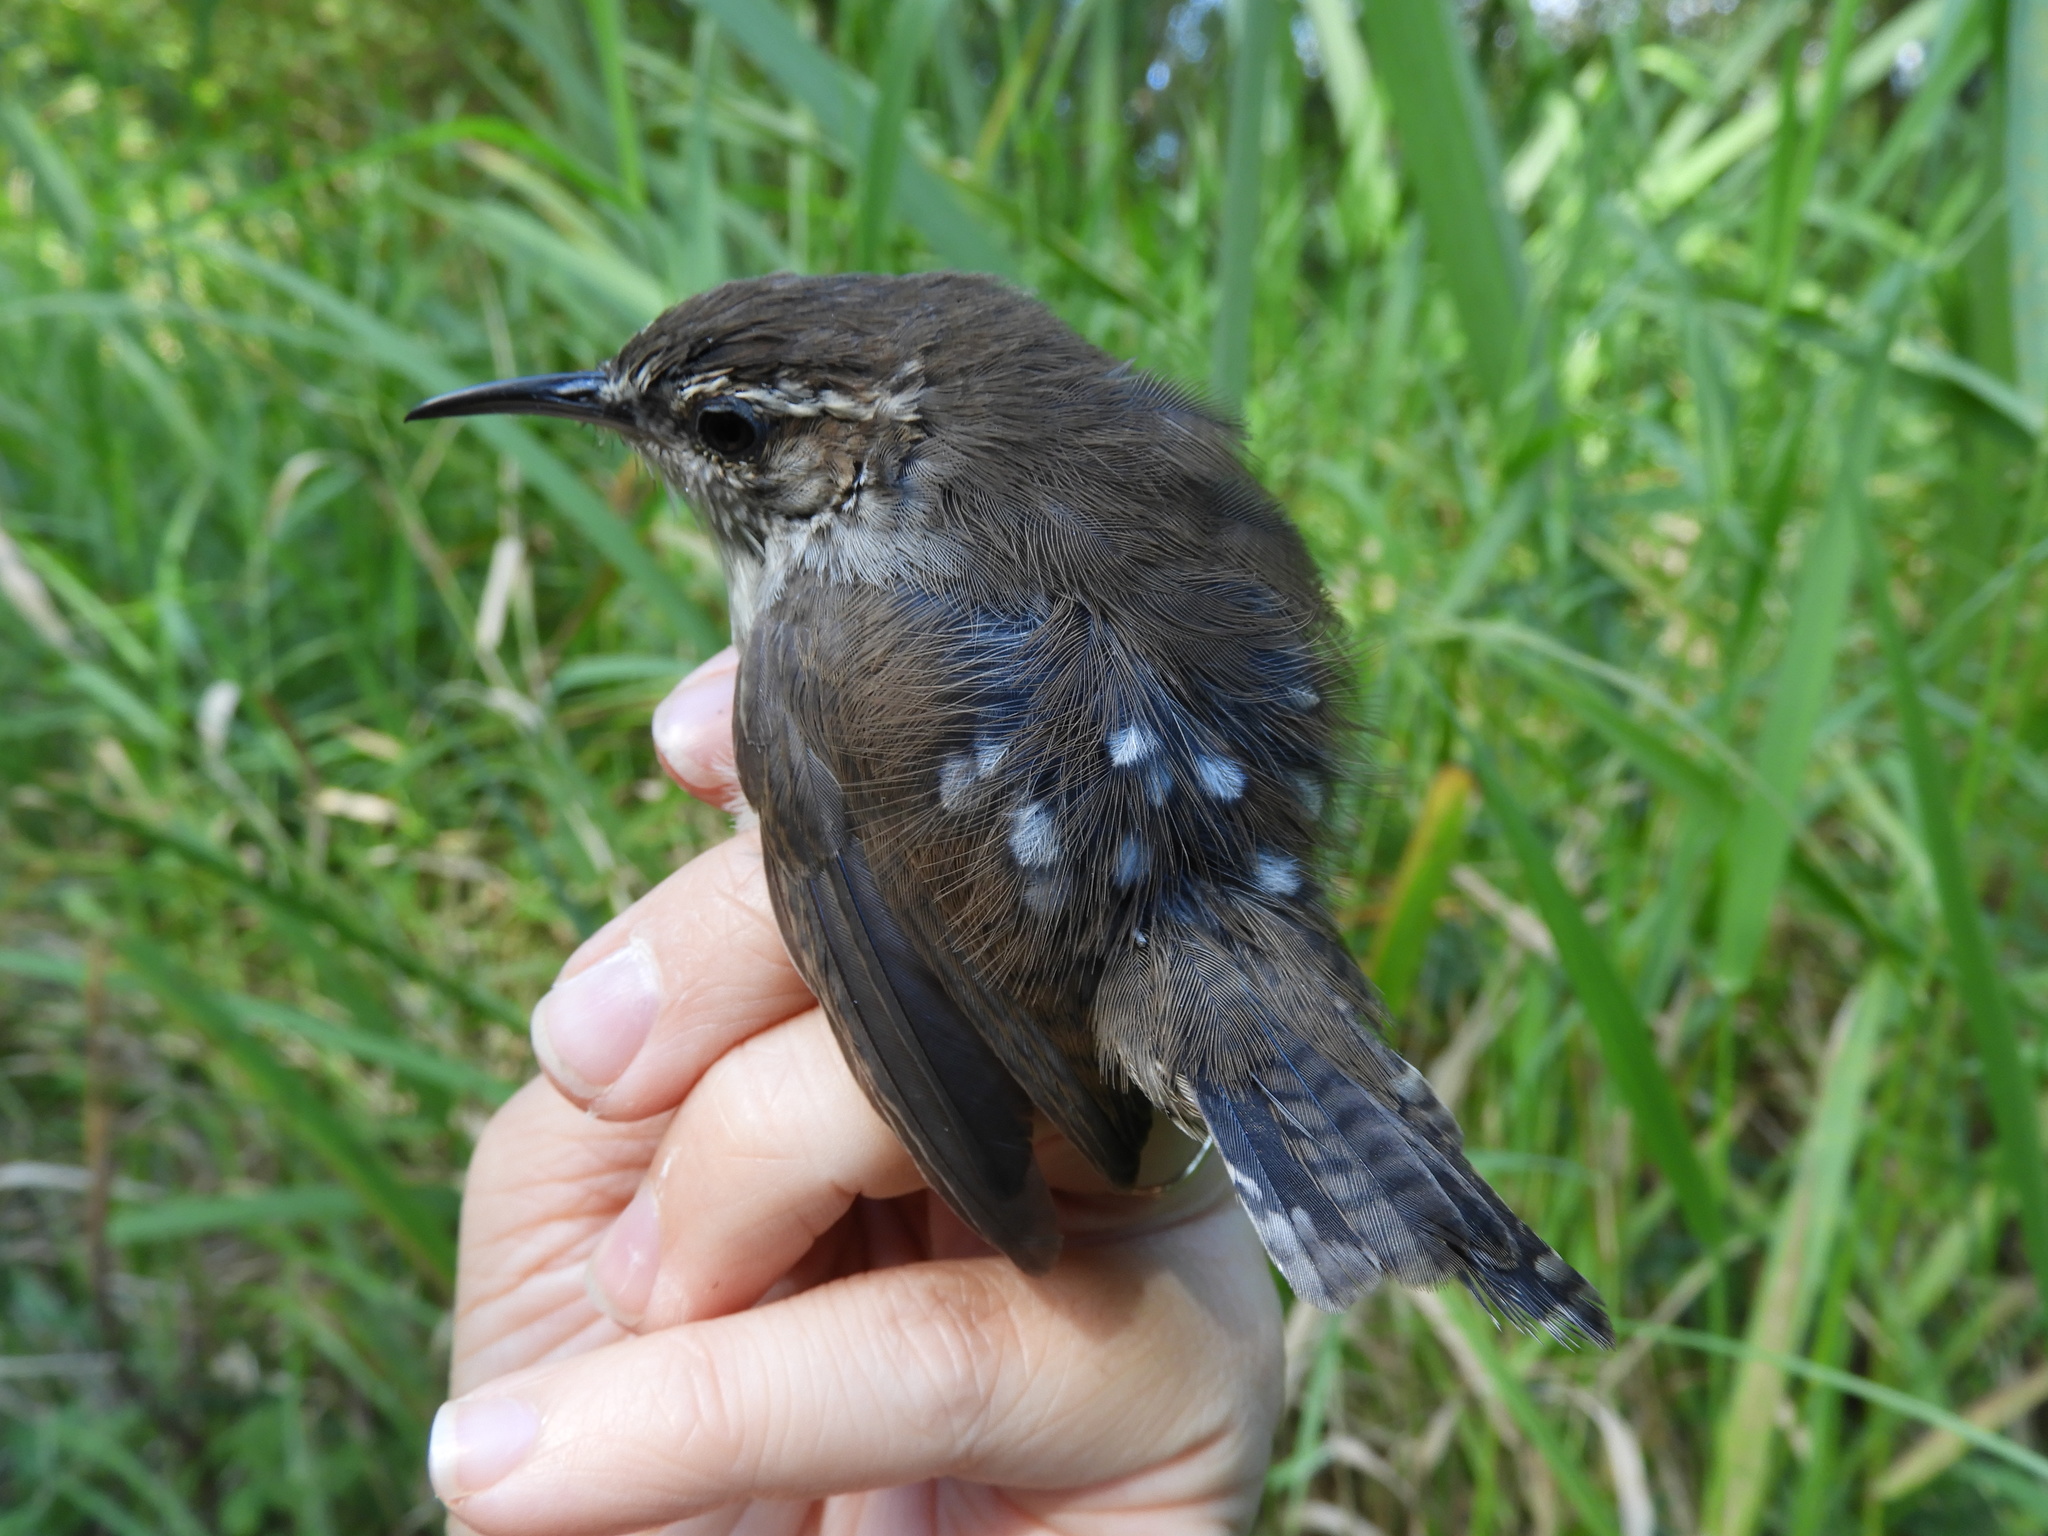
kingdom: Animalia
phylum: Chordata
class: Aves
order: Passeriformes
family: Troglodytidae
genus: Thryomanes
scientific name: Thryomanes bewickii
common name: Bewick's wren
